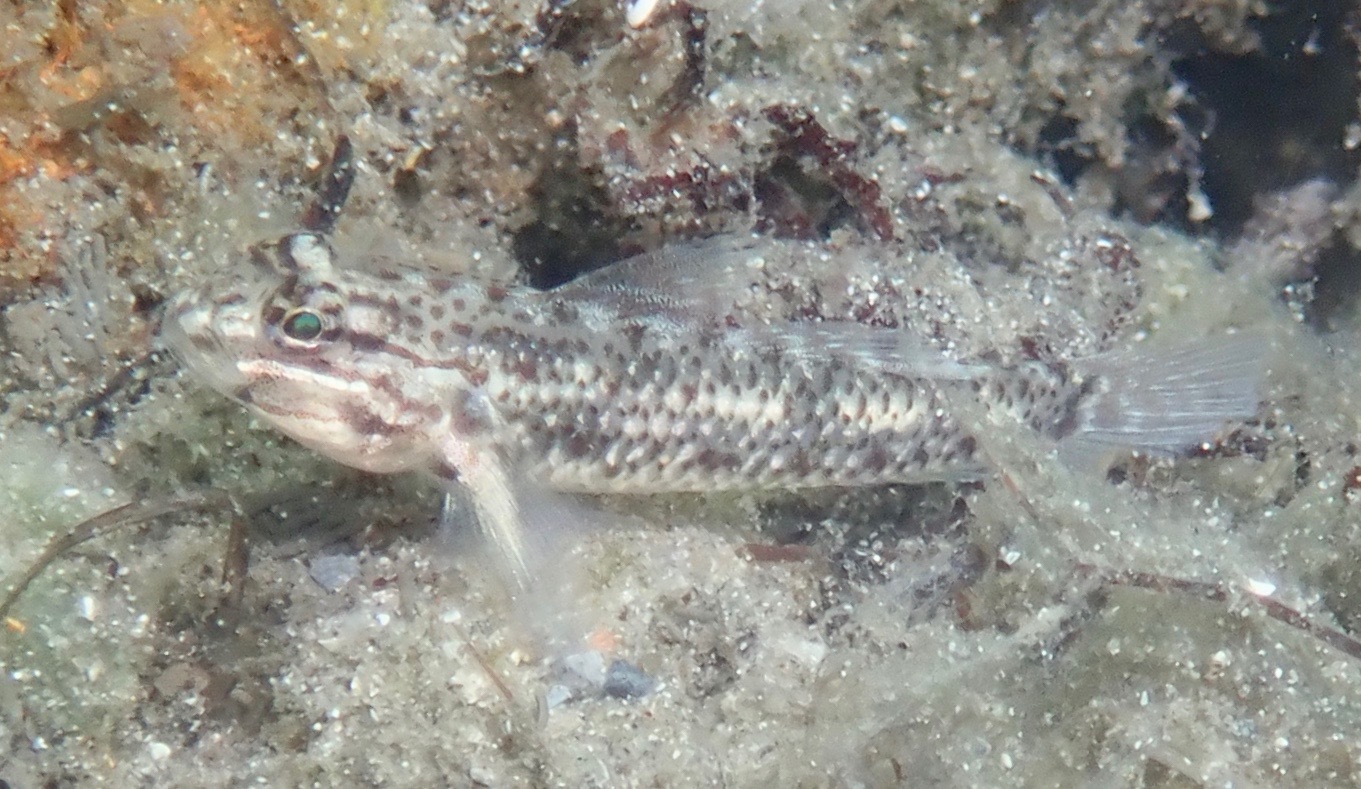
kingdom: Animalia
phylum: Chordata
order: Perciformes
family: Gobiidae
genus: Coryphopterus
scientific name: Coryphopterus dicrus
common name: Colon goby
